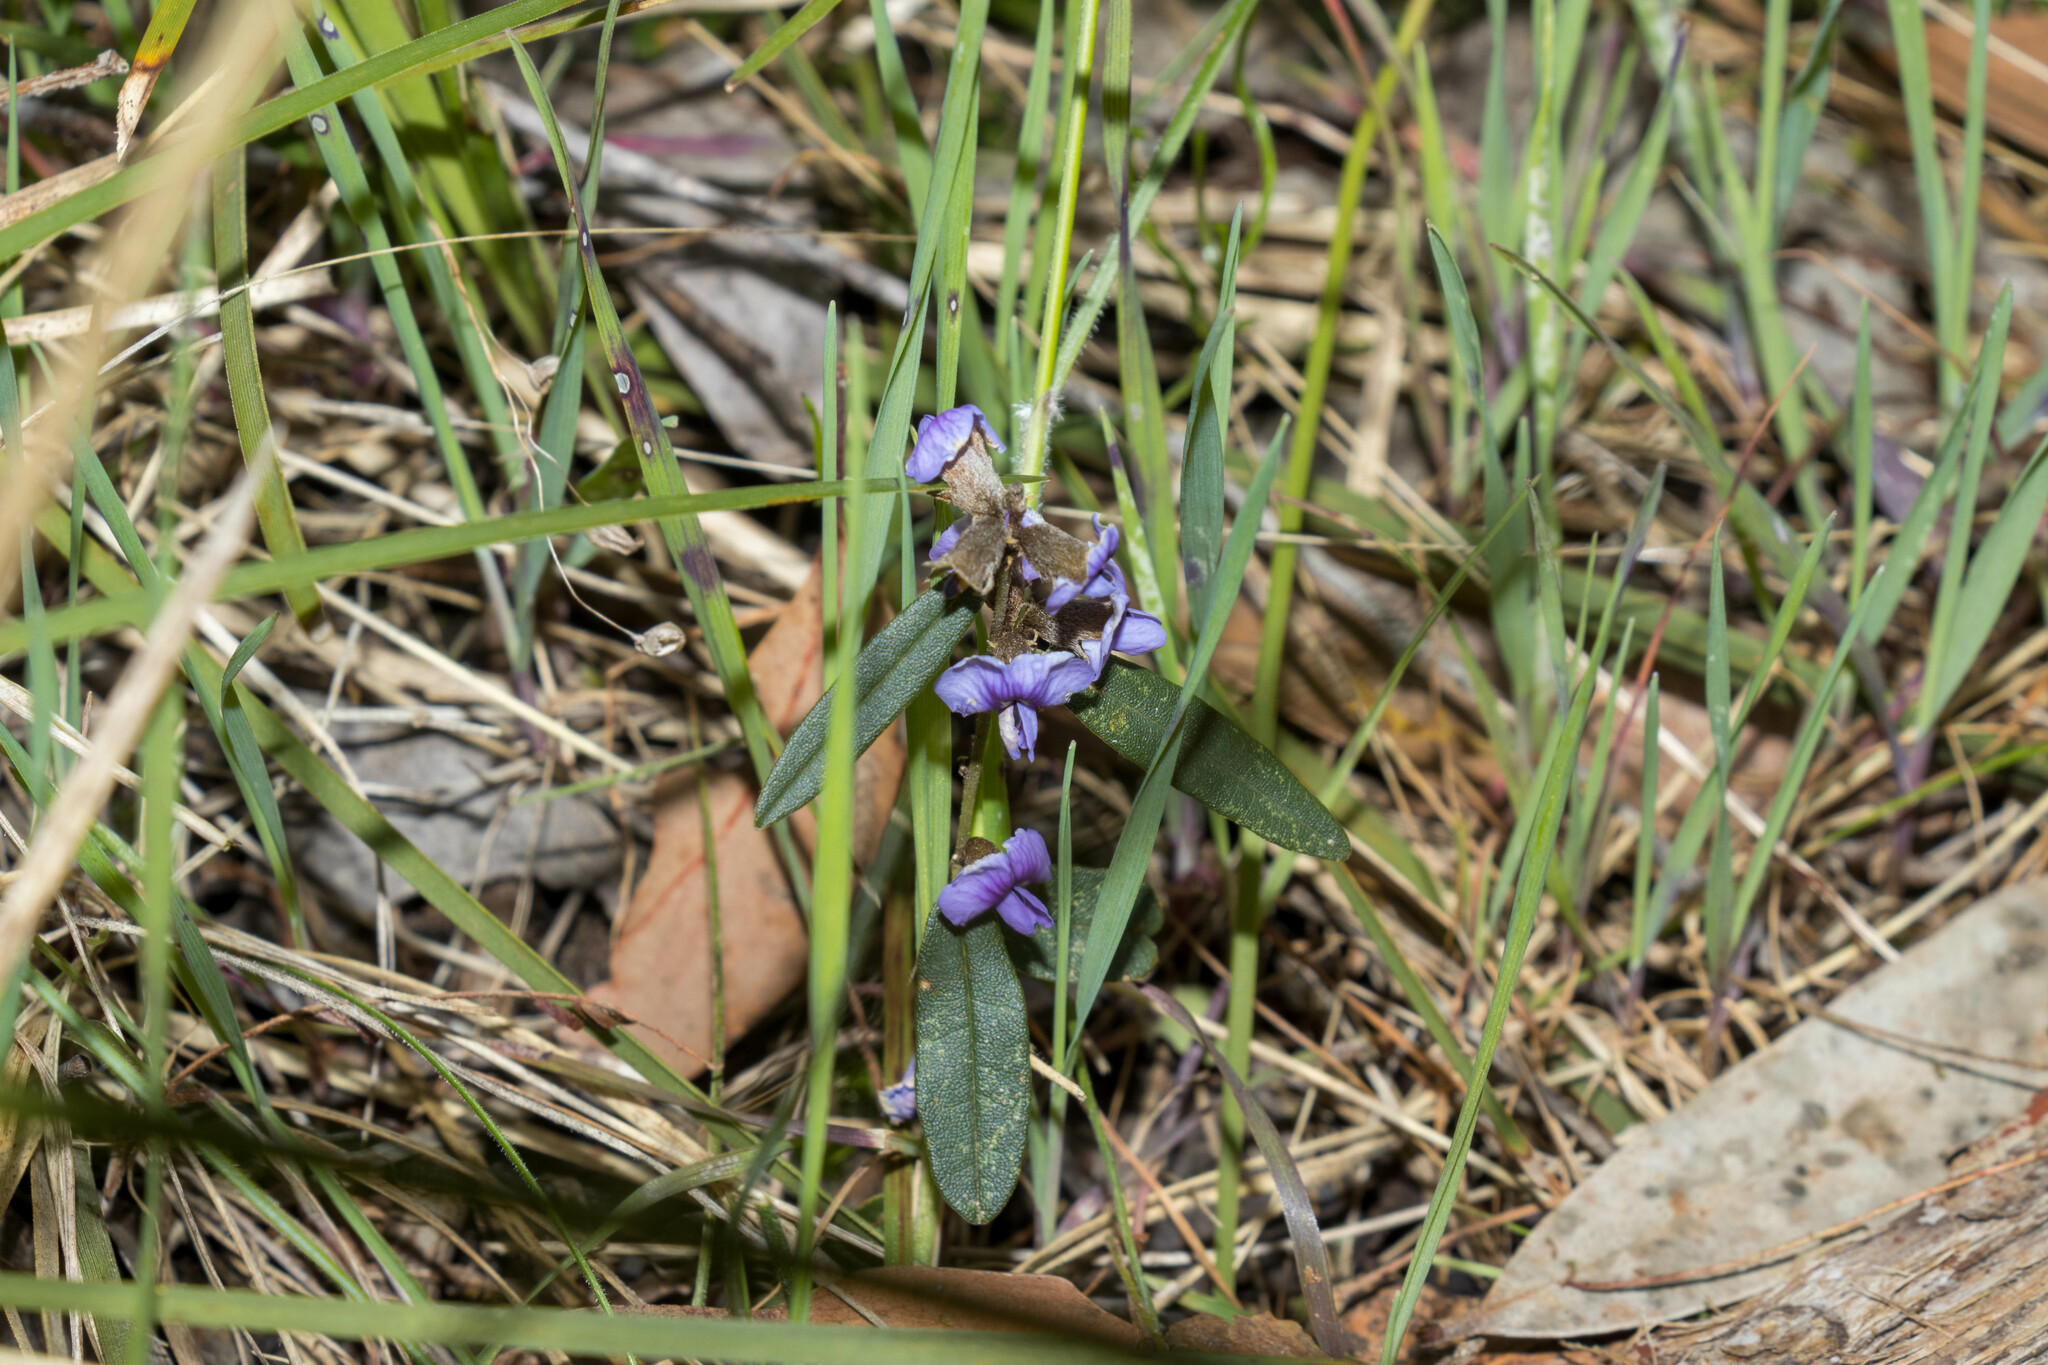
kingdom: Plantae
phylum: Tracheophyta
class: Magnoliopsida
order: Fabales
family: Fabaceae
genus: Hovea
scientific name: Hovea heterophylla
